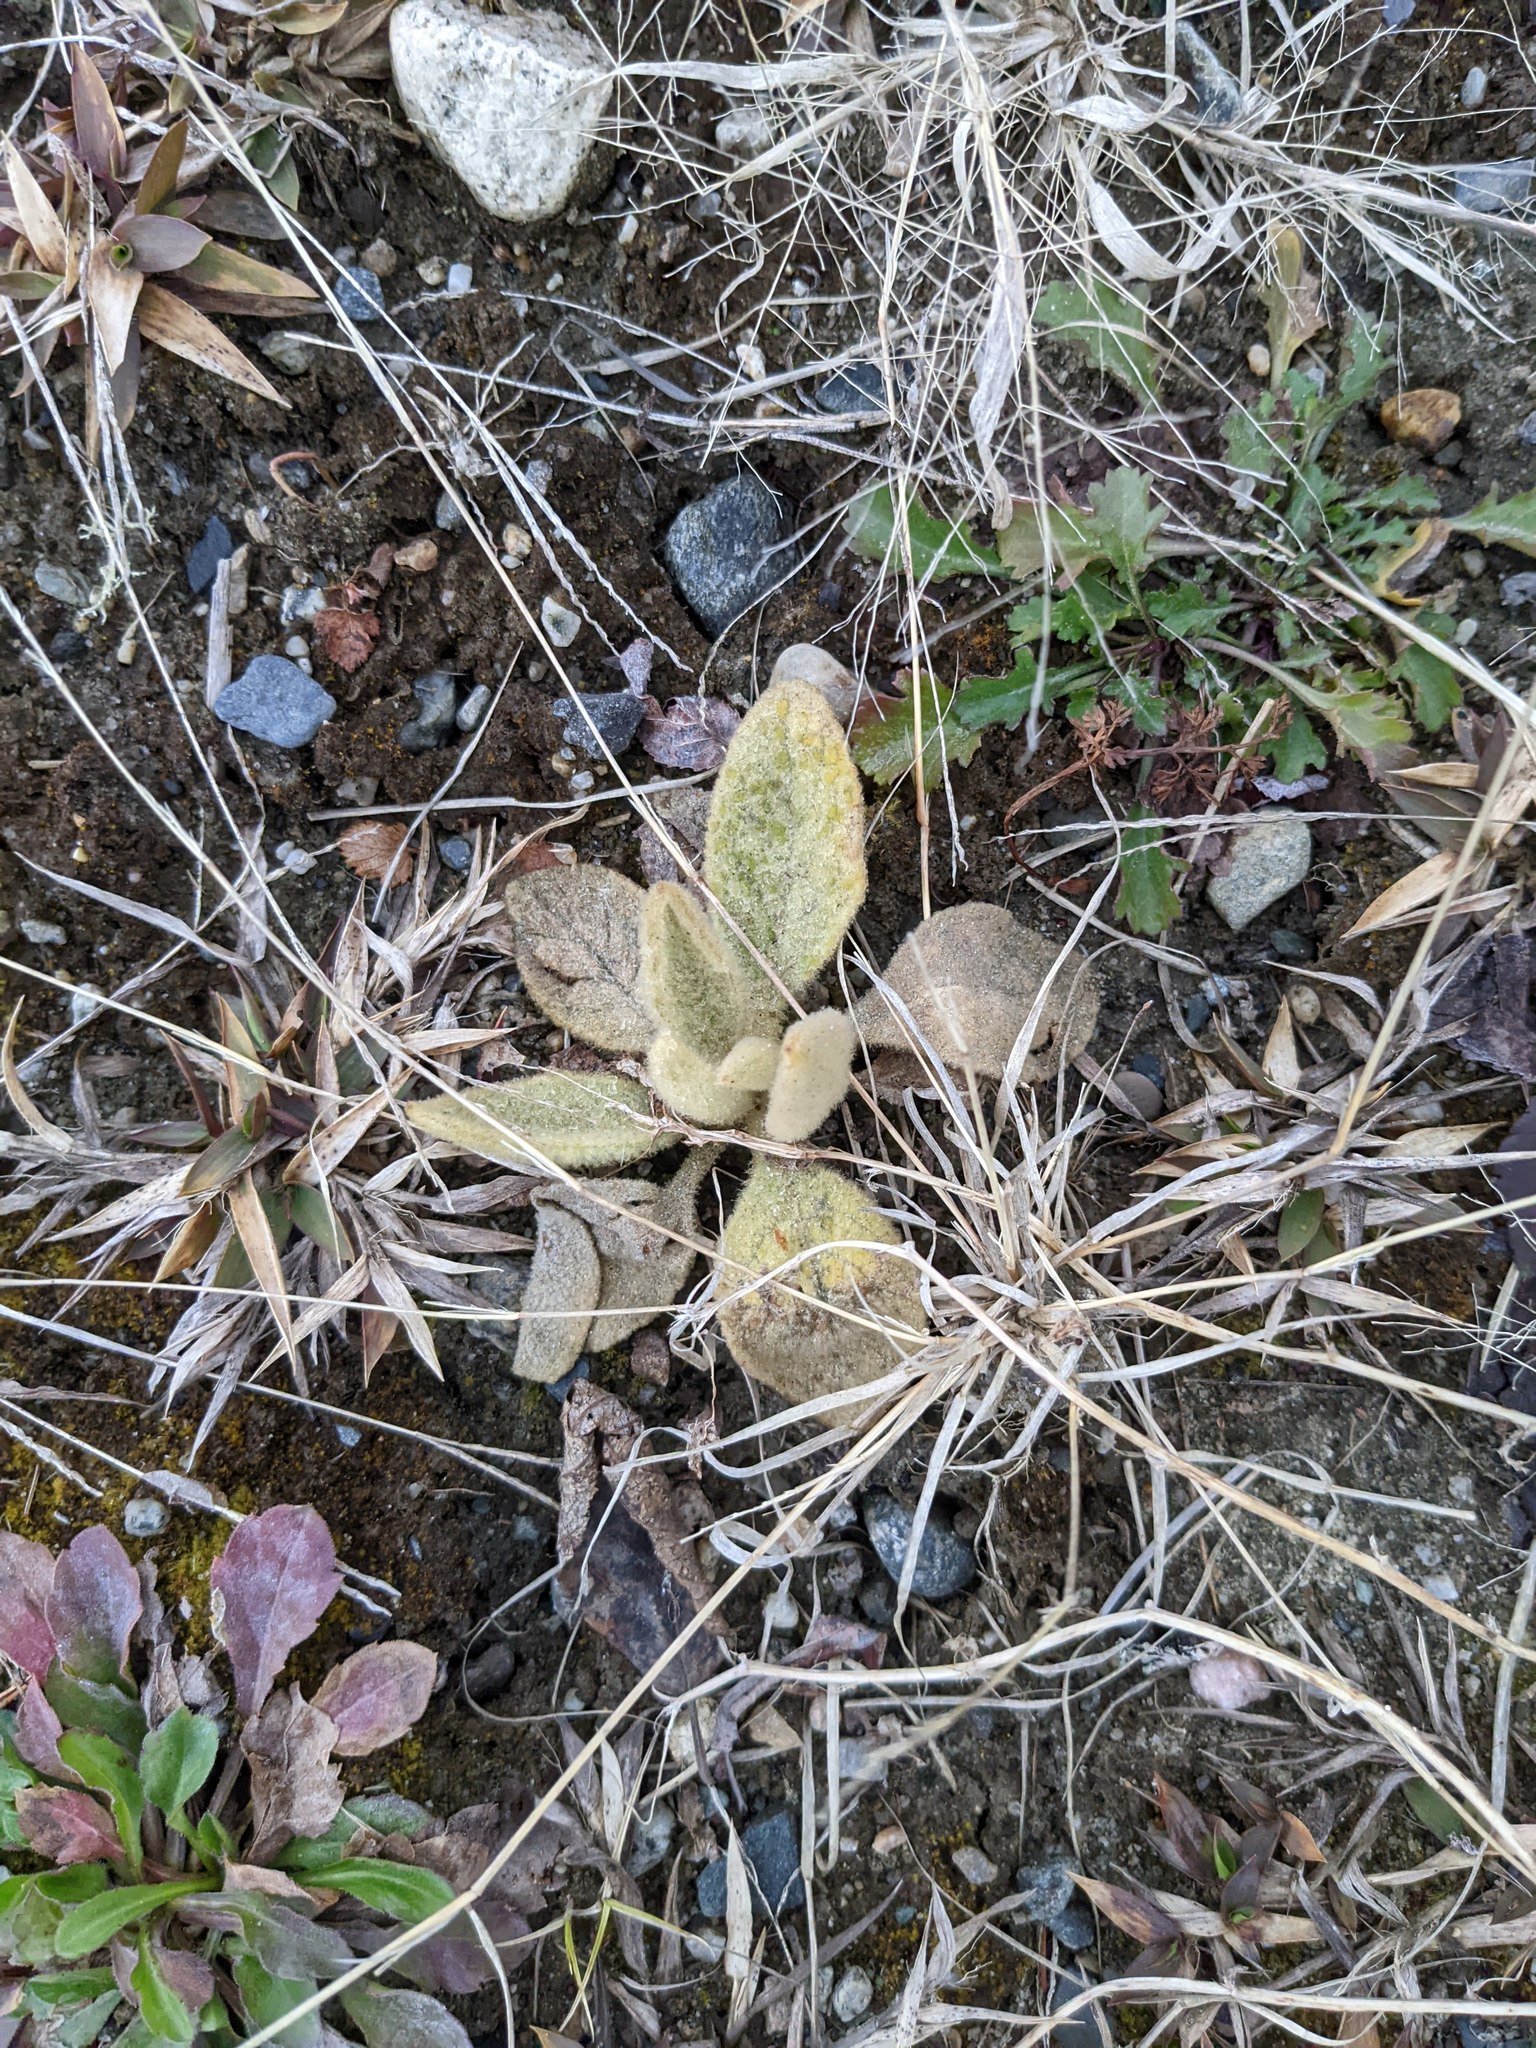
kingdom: Plantae
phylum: Tracheophyta
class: Magnoliopsida
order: Lamiales
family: Scrophulariaceae
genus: Verbascum
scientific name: Verbascum thapsus
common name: Common mullein
